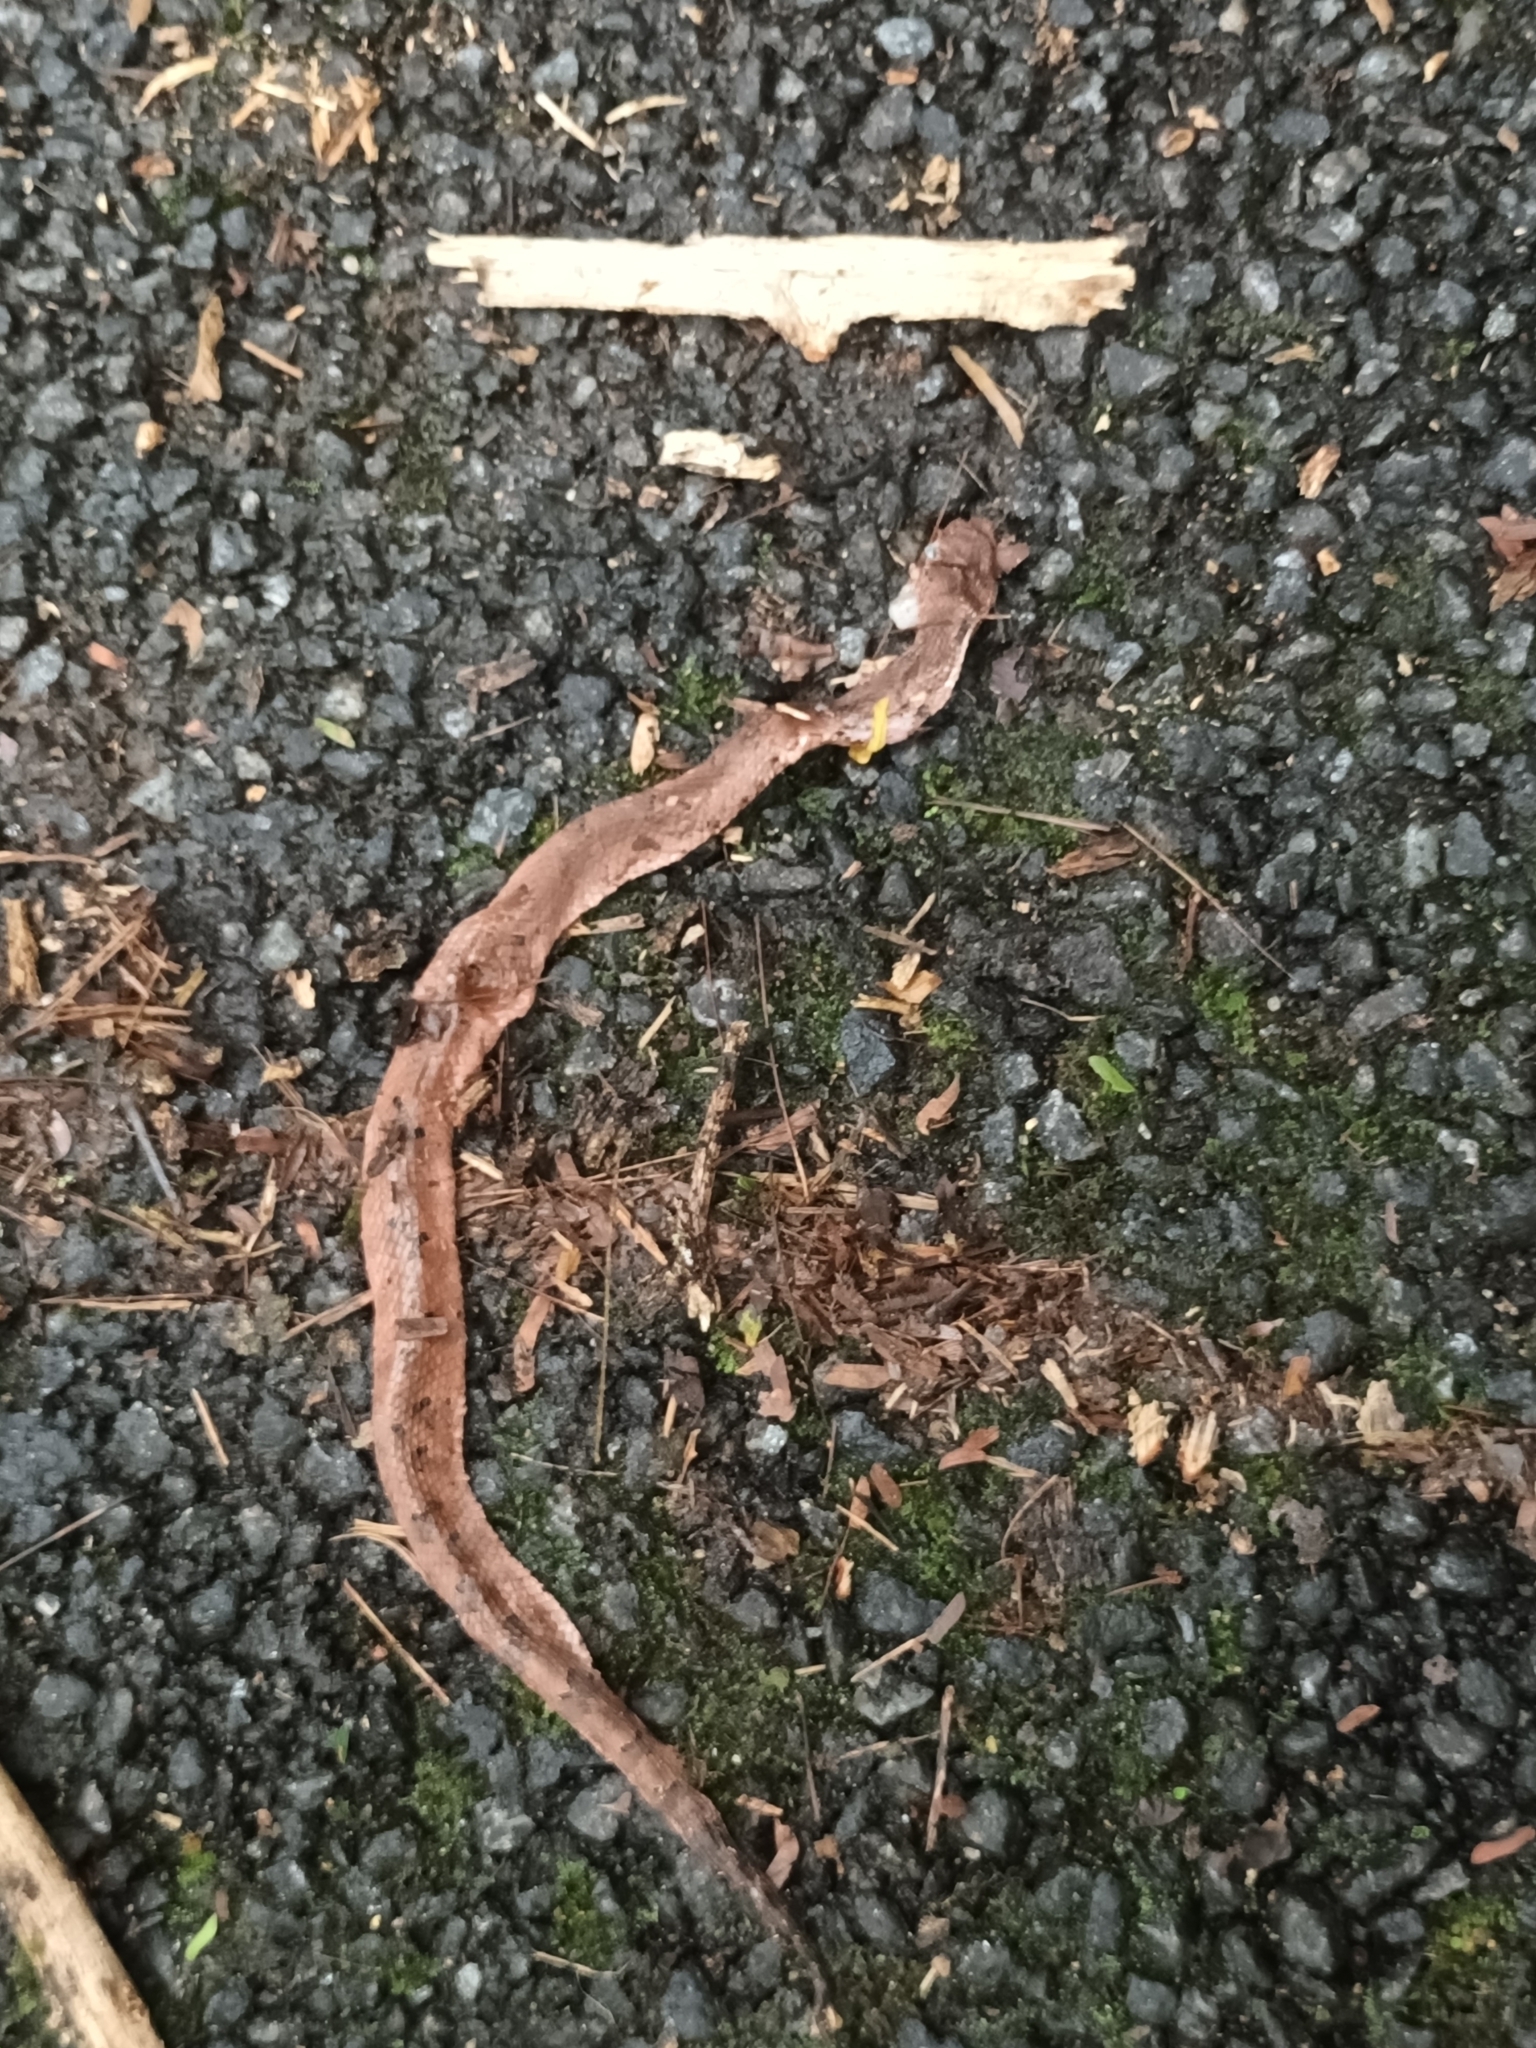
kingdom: Animalia
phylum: Chordata
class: Squamata
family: Viperidae
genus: Hypnale
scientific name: Hypnale hypnale
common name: Hump-nosed moccasin
